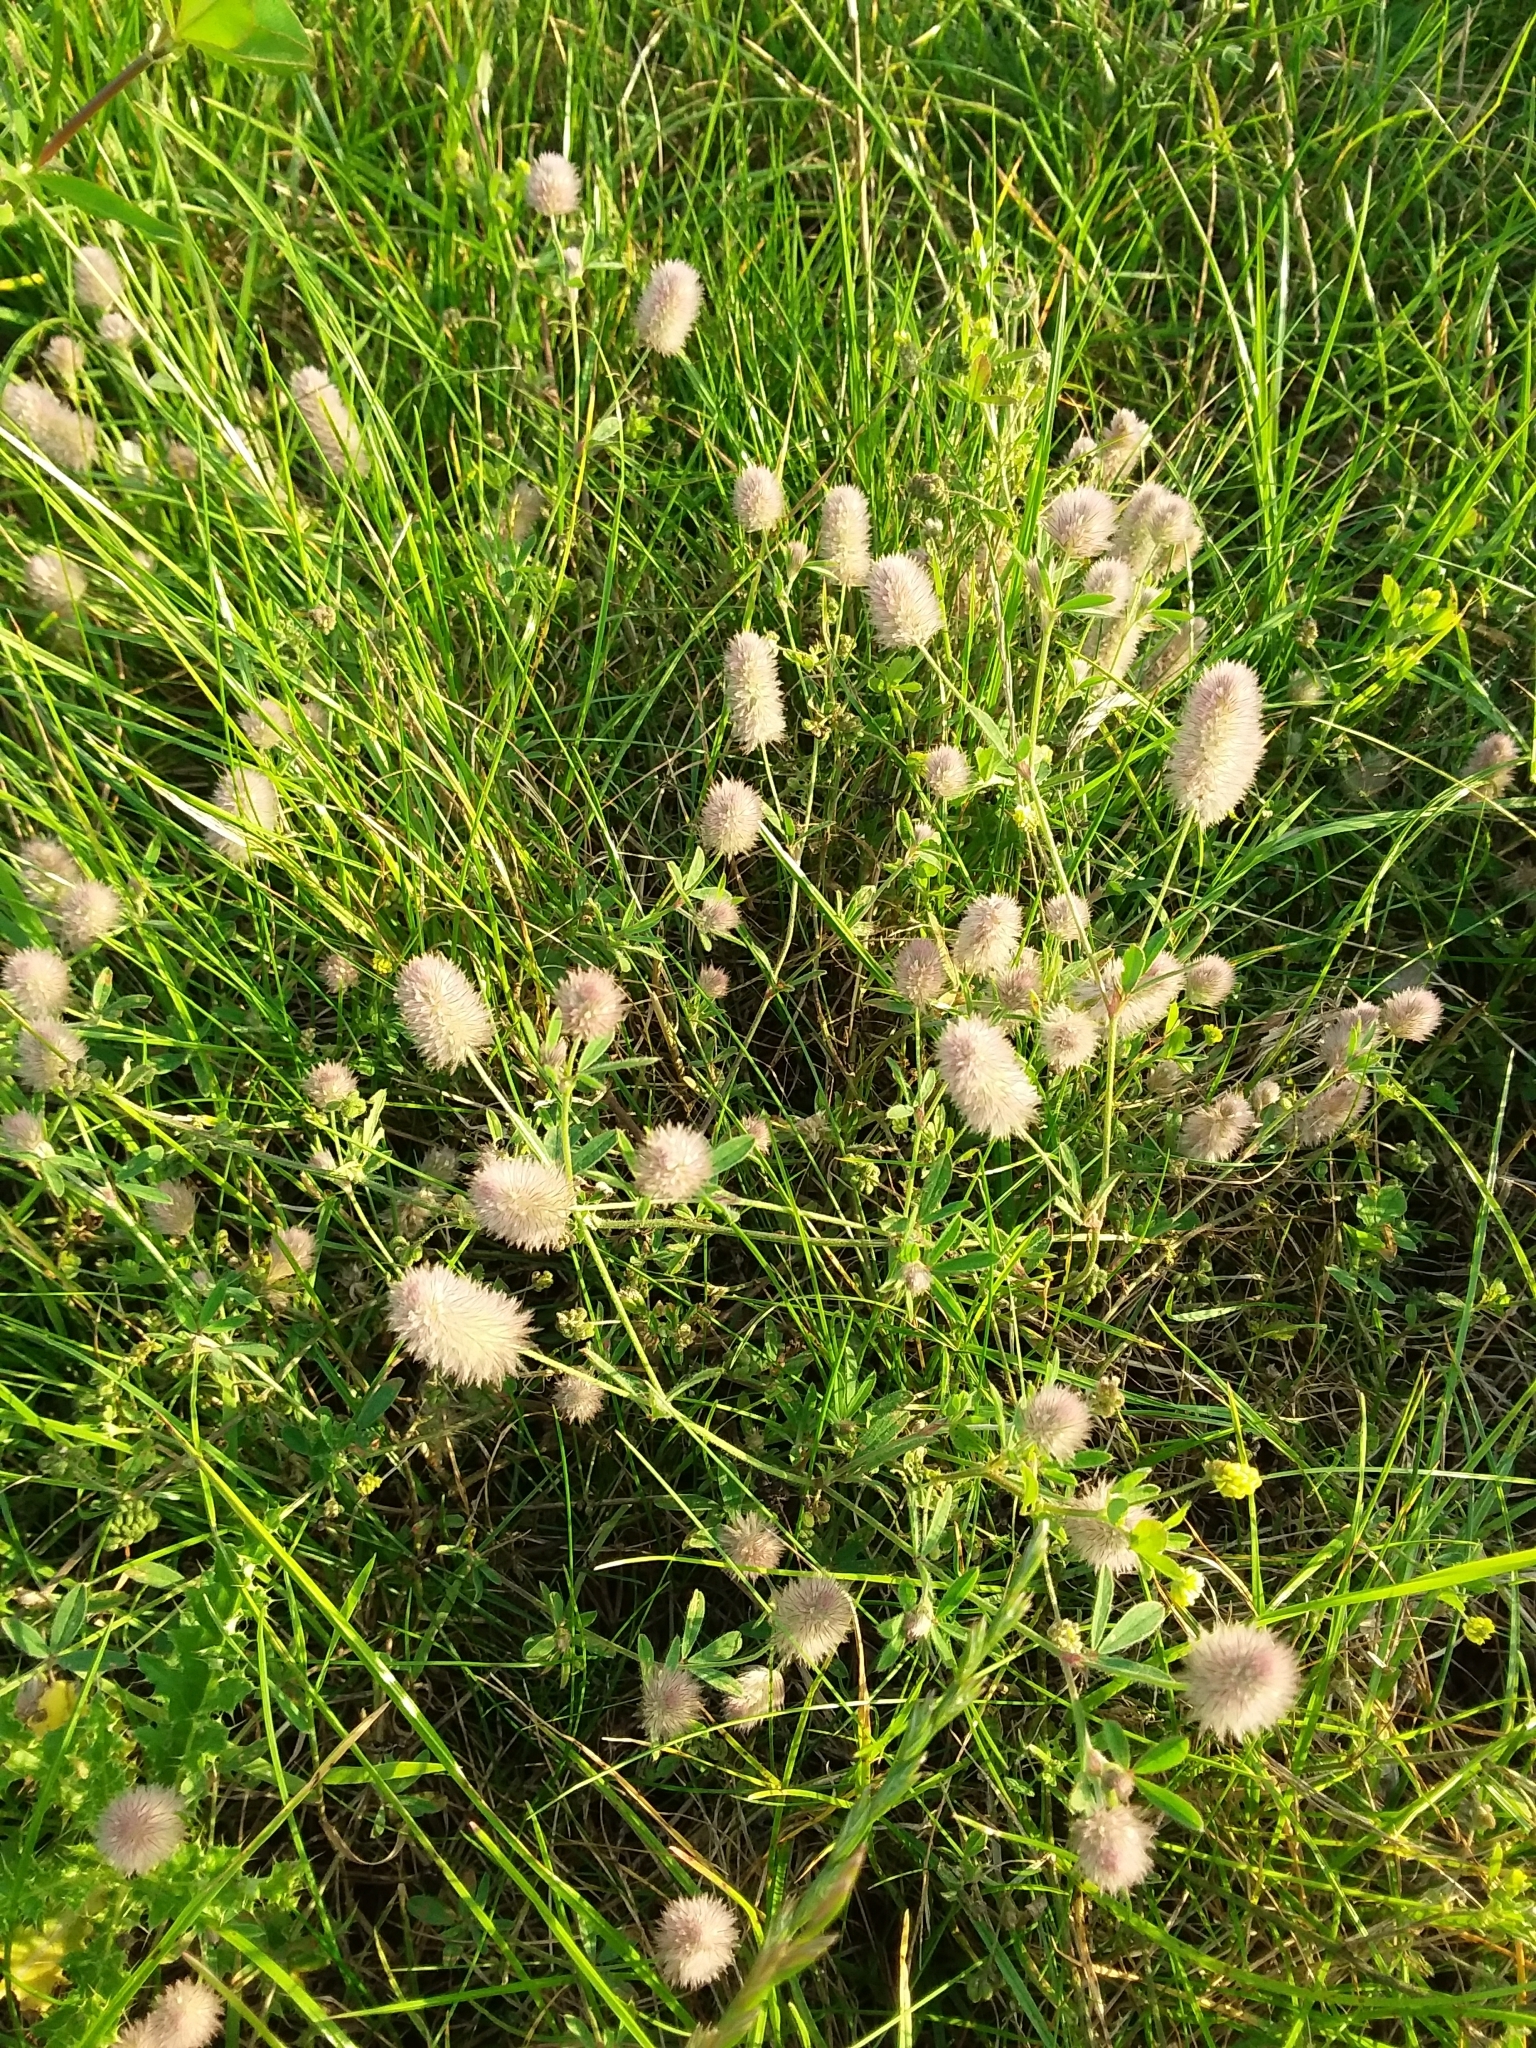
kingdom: Plantae
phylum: Tracheophyta
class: Magnoliopsida
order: Fabales
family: Fabaceae
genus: Trifolium
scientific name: Trifolium arvense
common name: Hare's-foot clover
